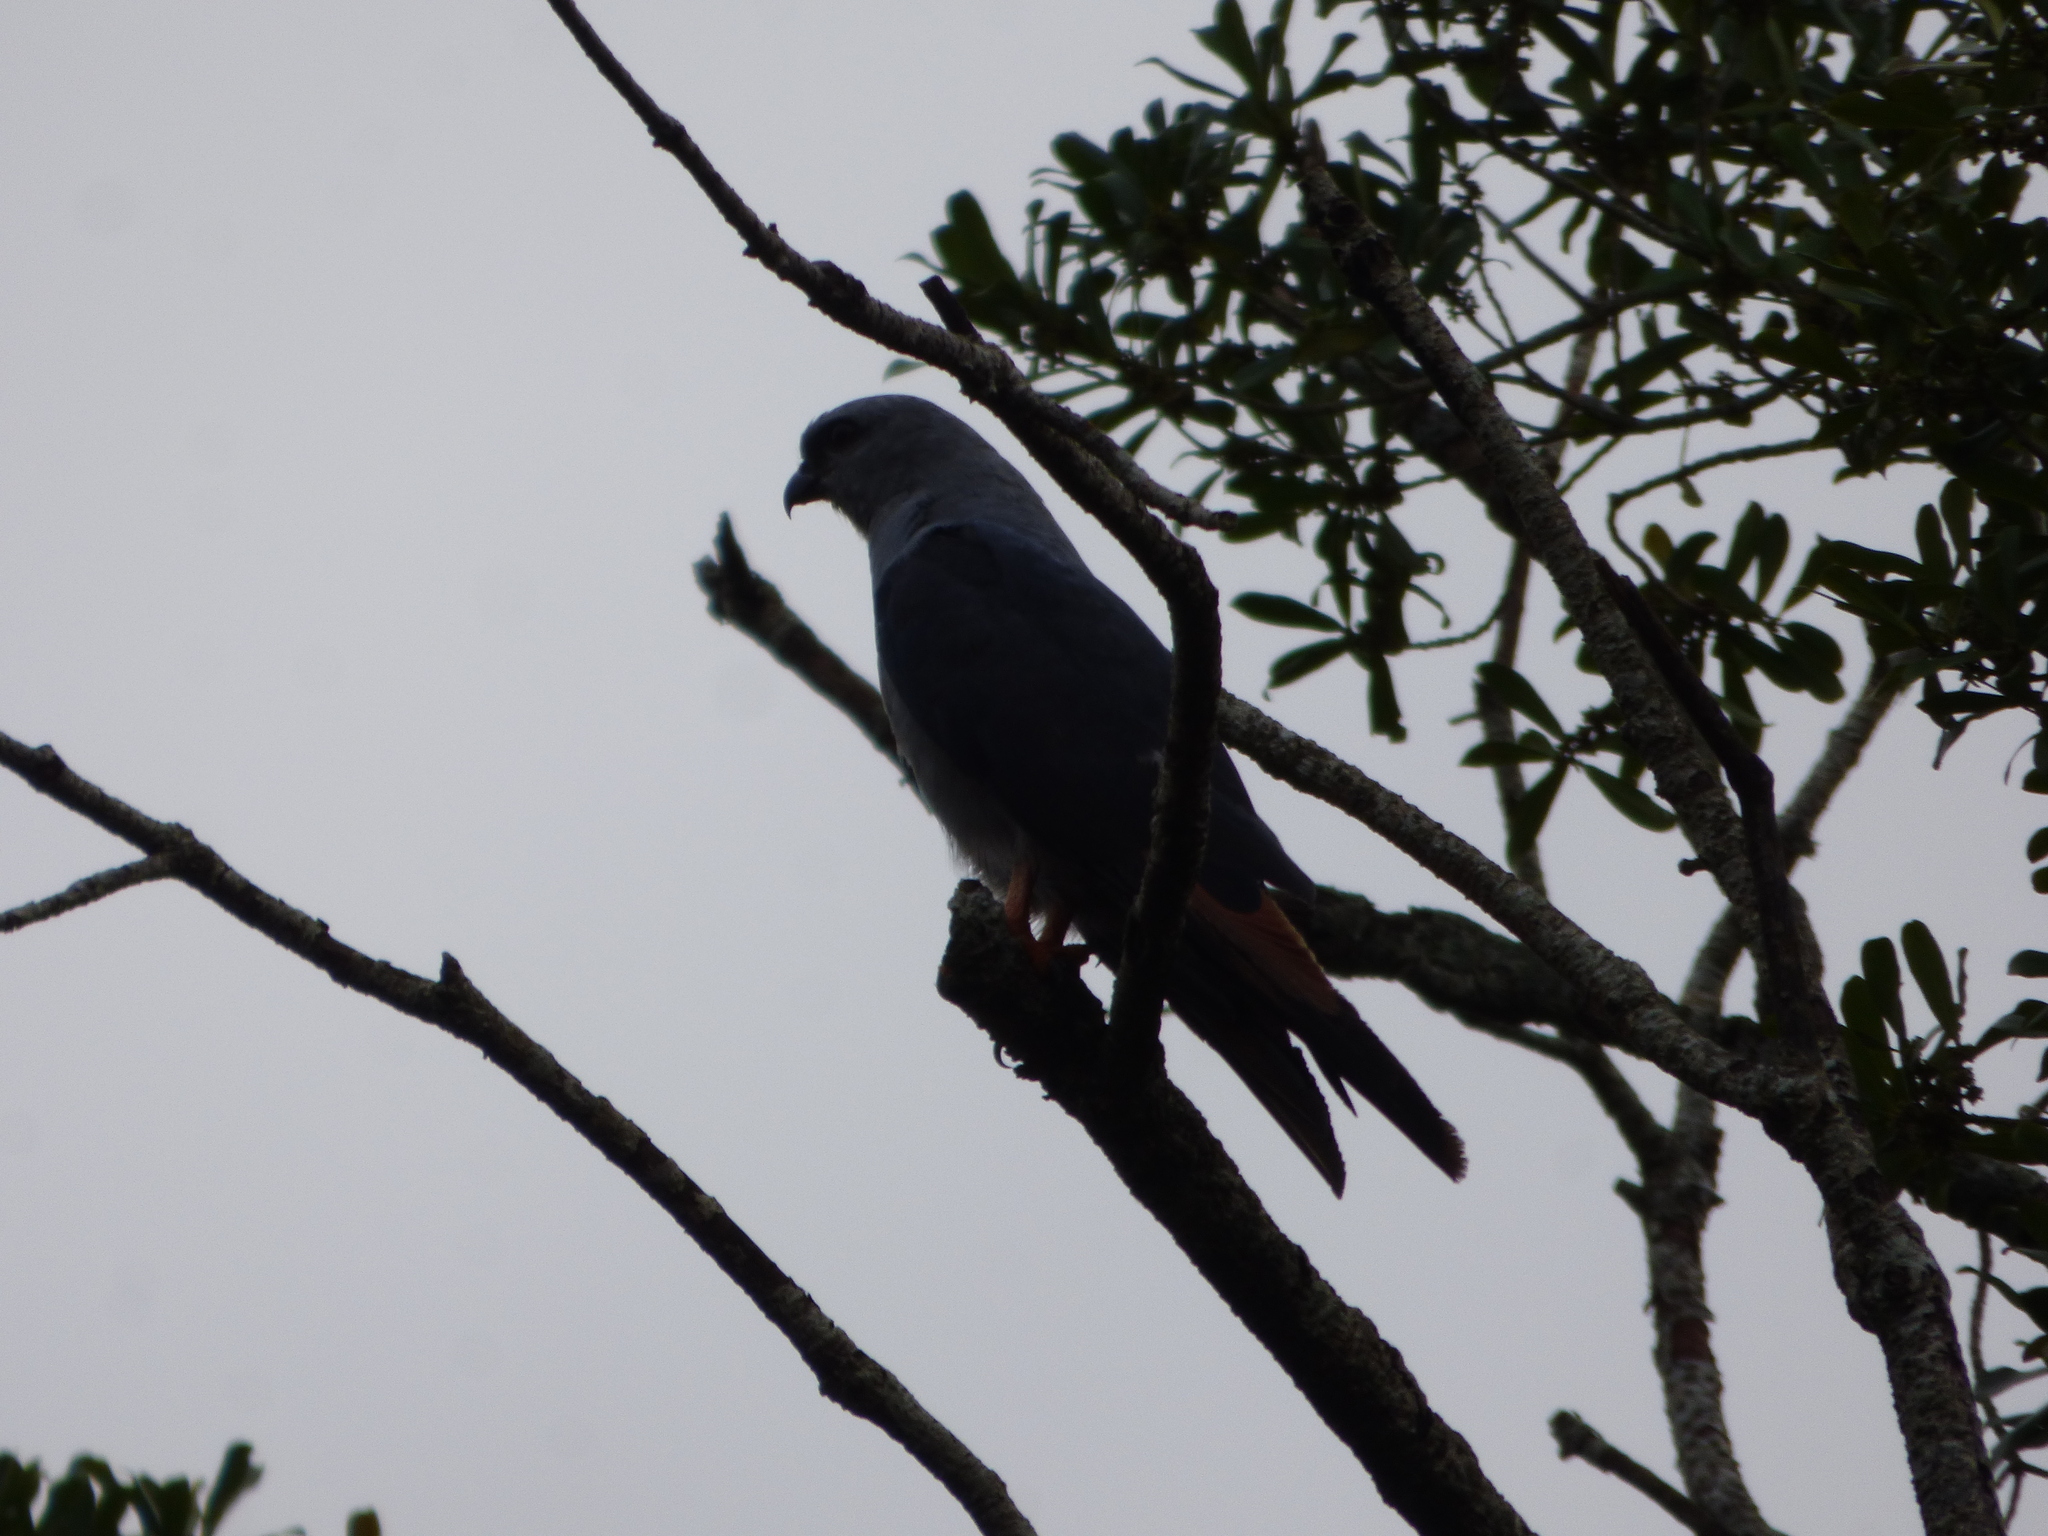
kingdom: Animalia
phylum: Chordata
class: Aves
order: Accipitriformes
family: Accipitridae
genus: Ictinia
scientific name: Ictinia plumbea
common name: Plumbeous kite
